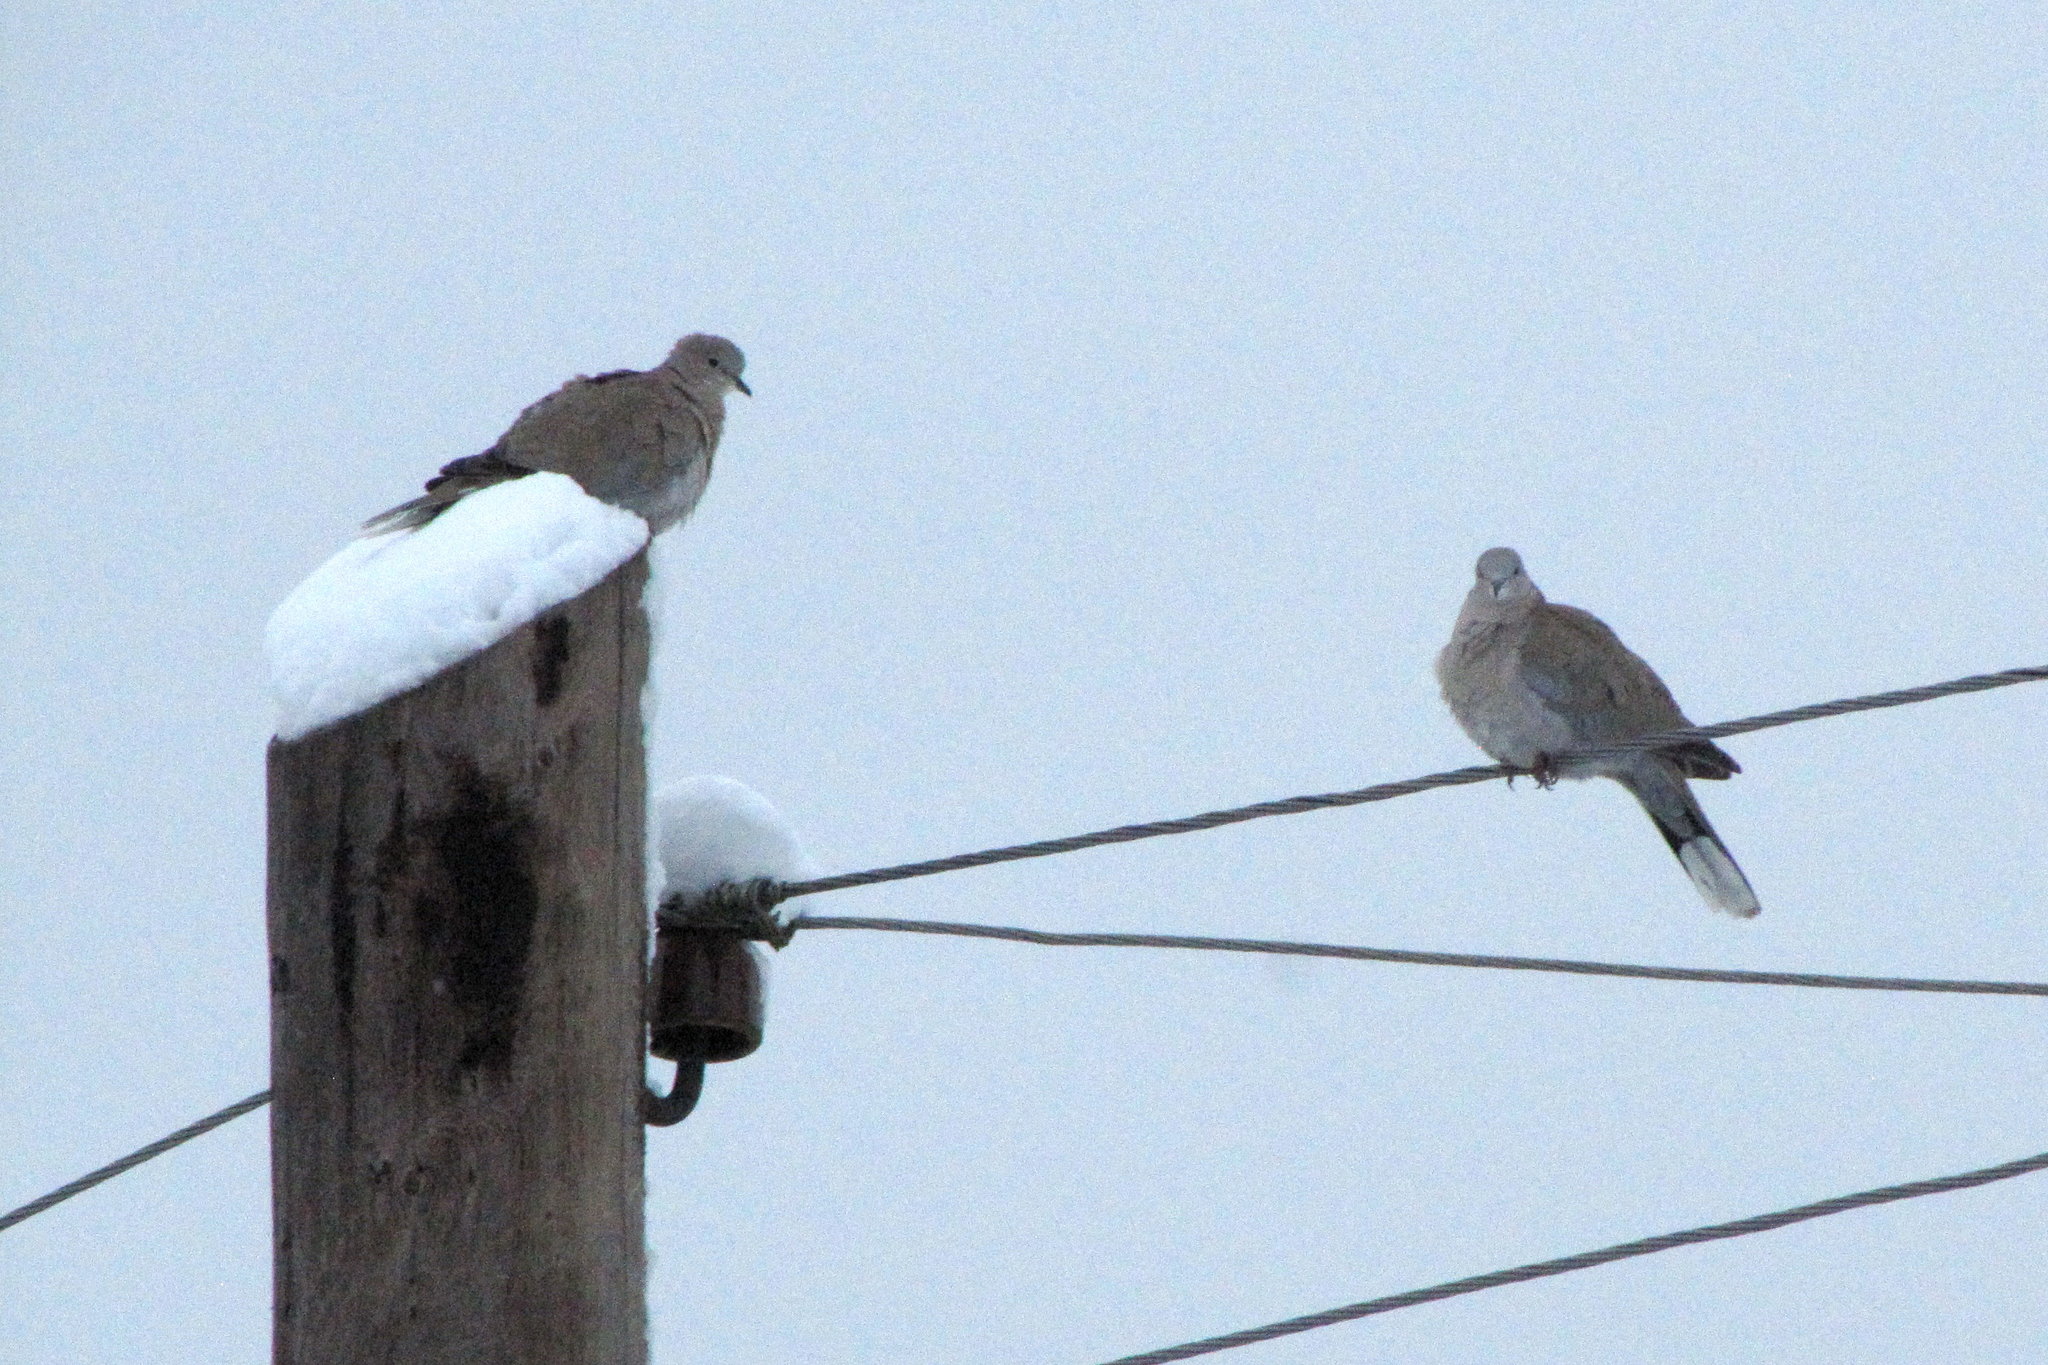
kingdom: Animalia
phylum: Chordata
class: Aves
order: Columbiformes
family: Columbidae
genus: Streptopelia
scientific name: Streptopelia decaocto
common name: Eurasian collared dove
